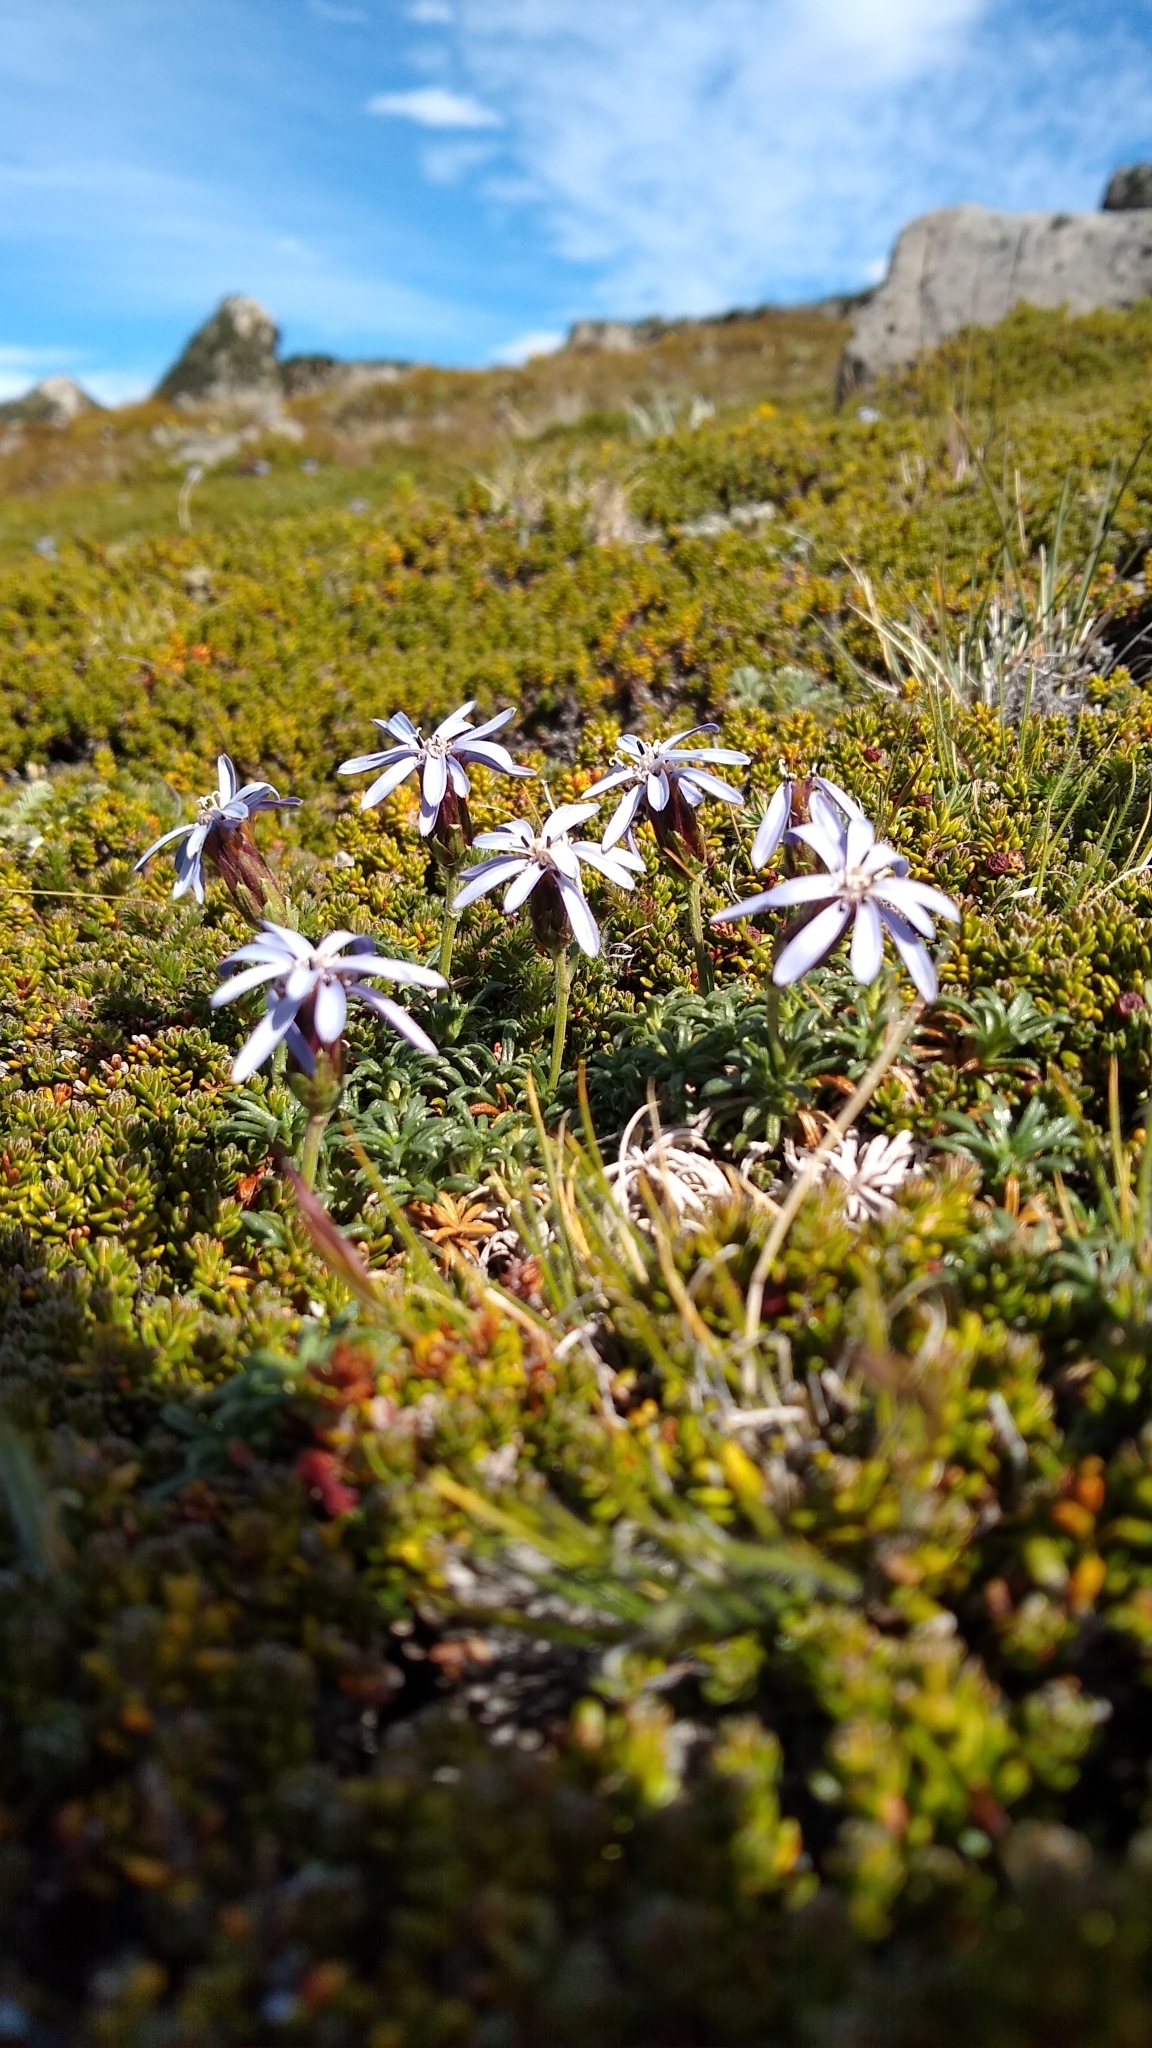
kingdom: Plantae
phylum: Tracheophyta
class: Magnoliopsida
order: Asterales
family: Asteraceae
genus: Perezia
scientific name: Perezia recurvata
